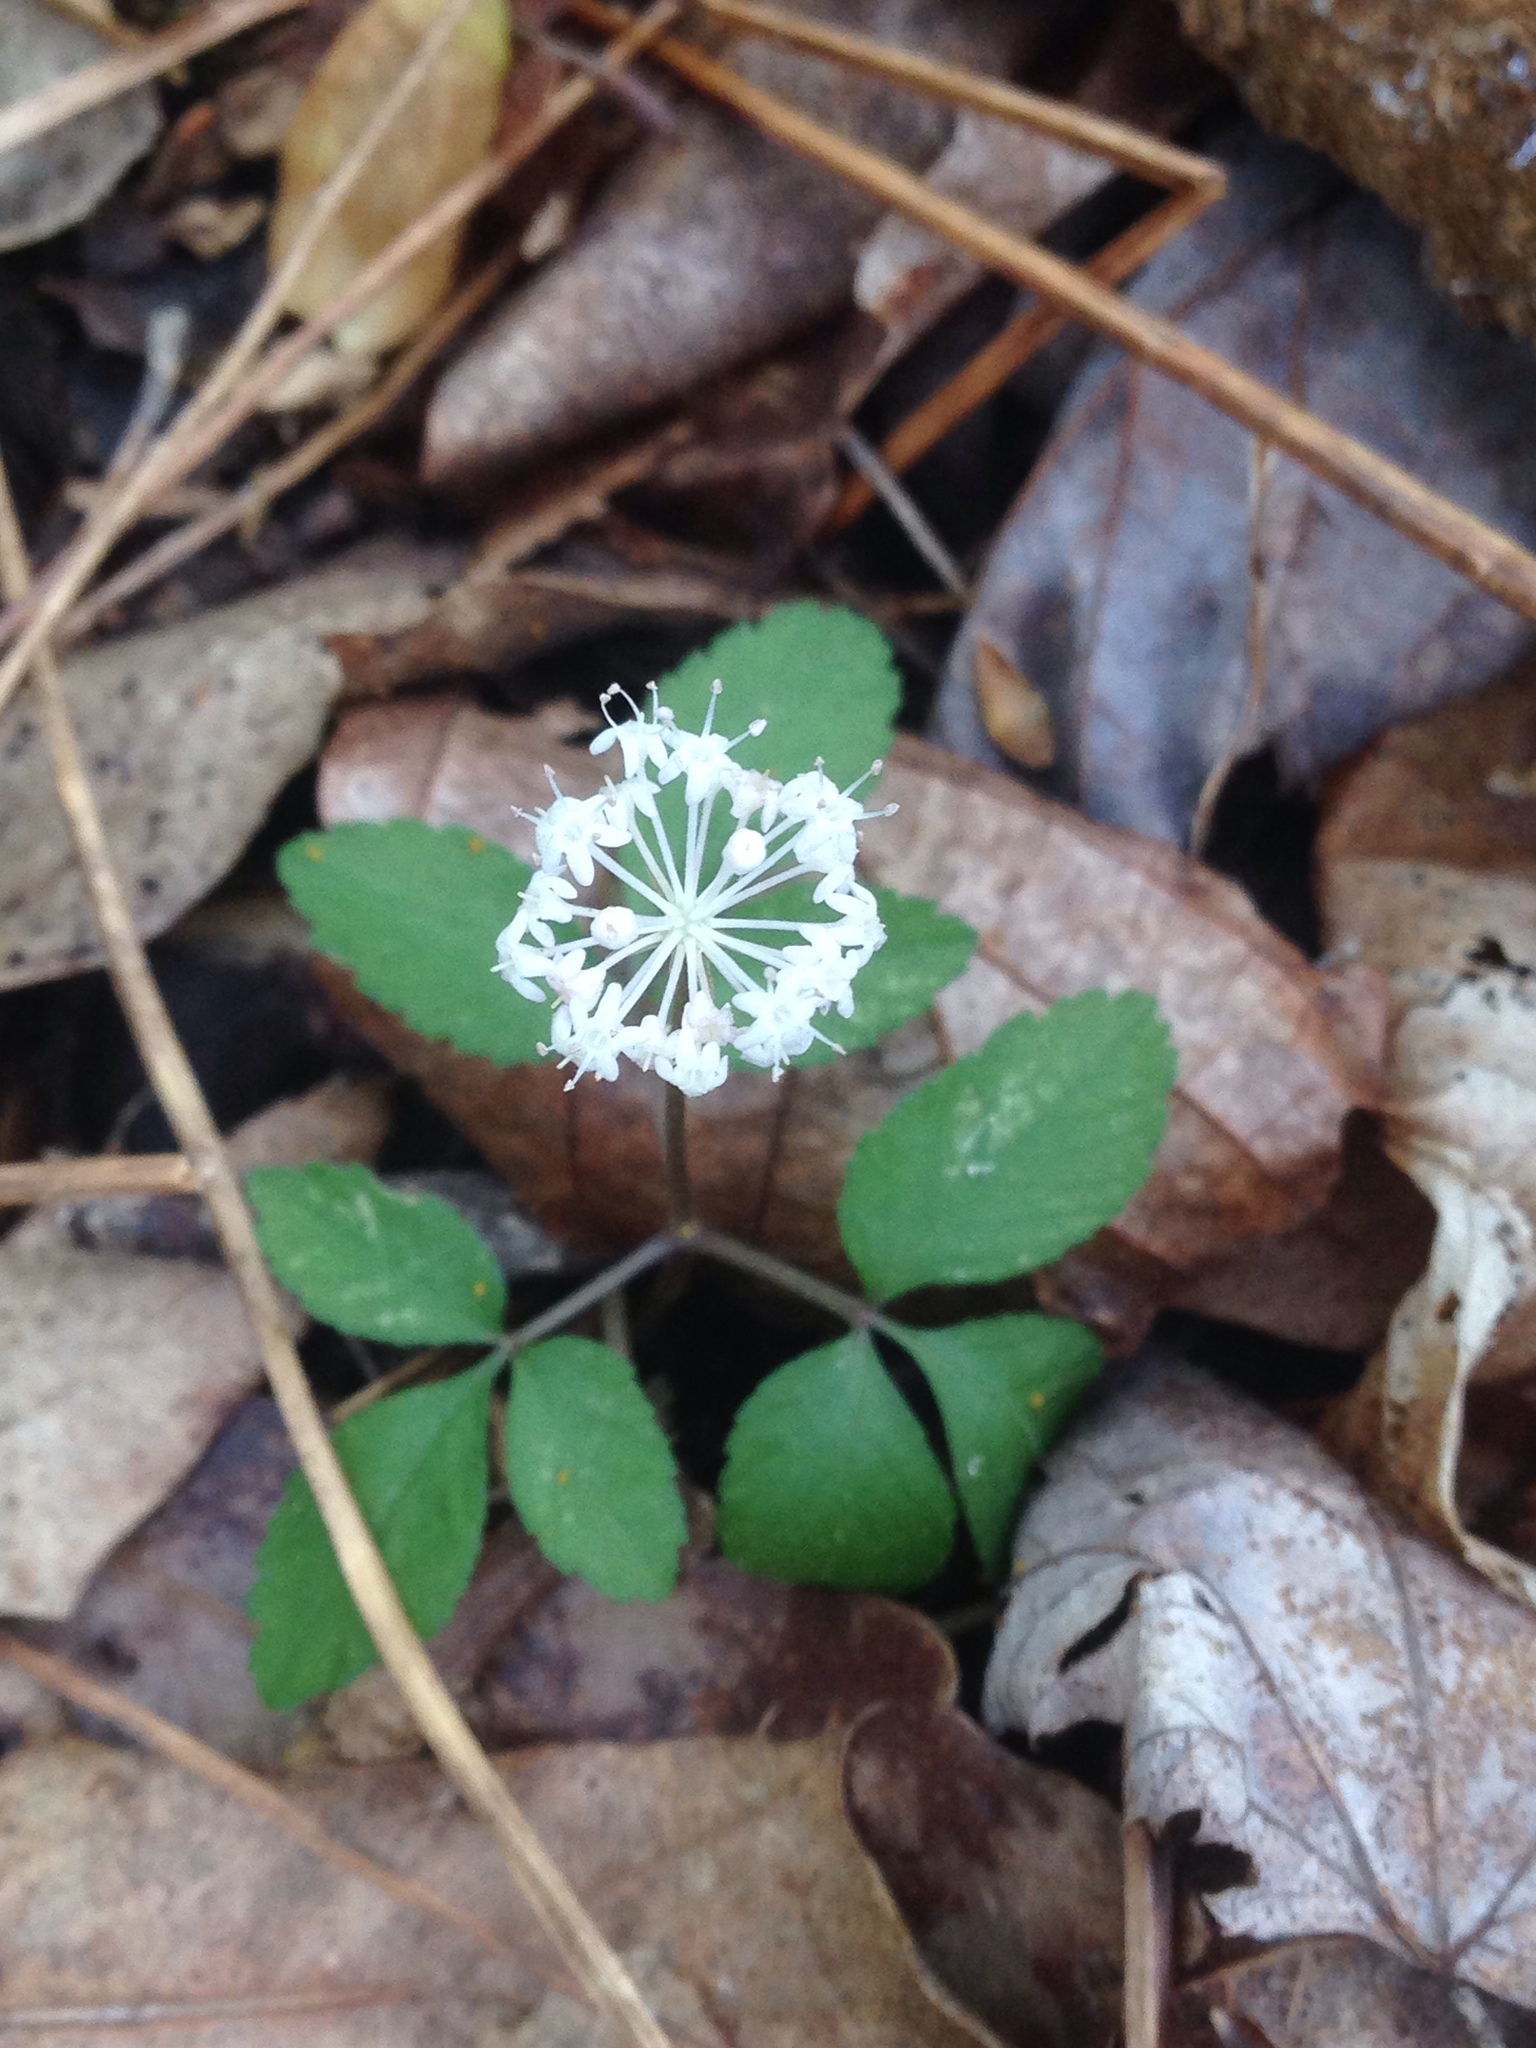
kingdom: Plantae
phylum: Tracheophyta
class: Magnoliopsida
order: Apiales
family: Araliaceae
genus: Panax
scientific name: Panax trifolius
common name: Dwarf ginseng
